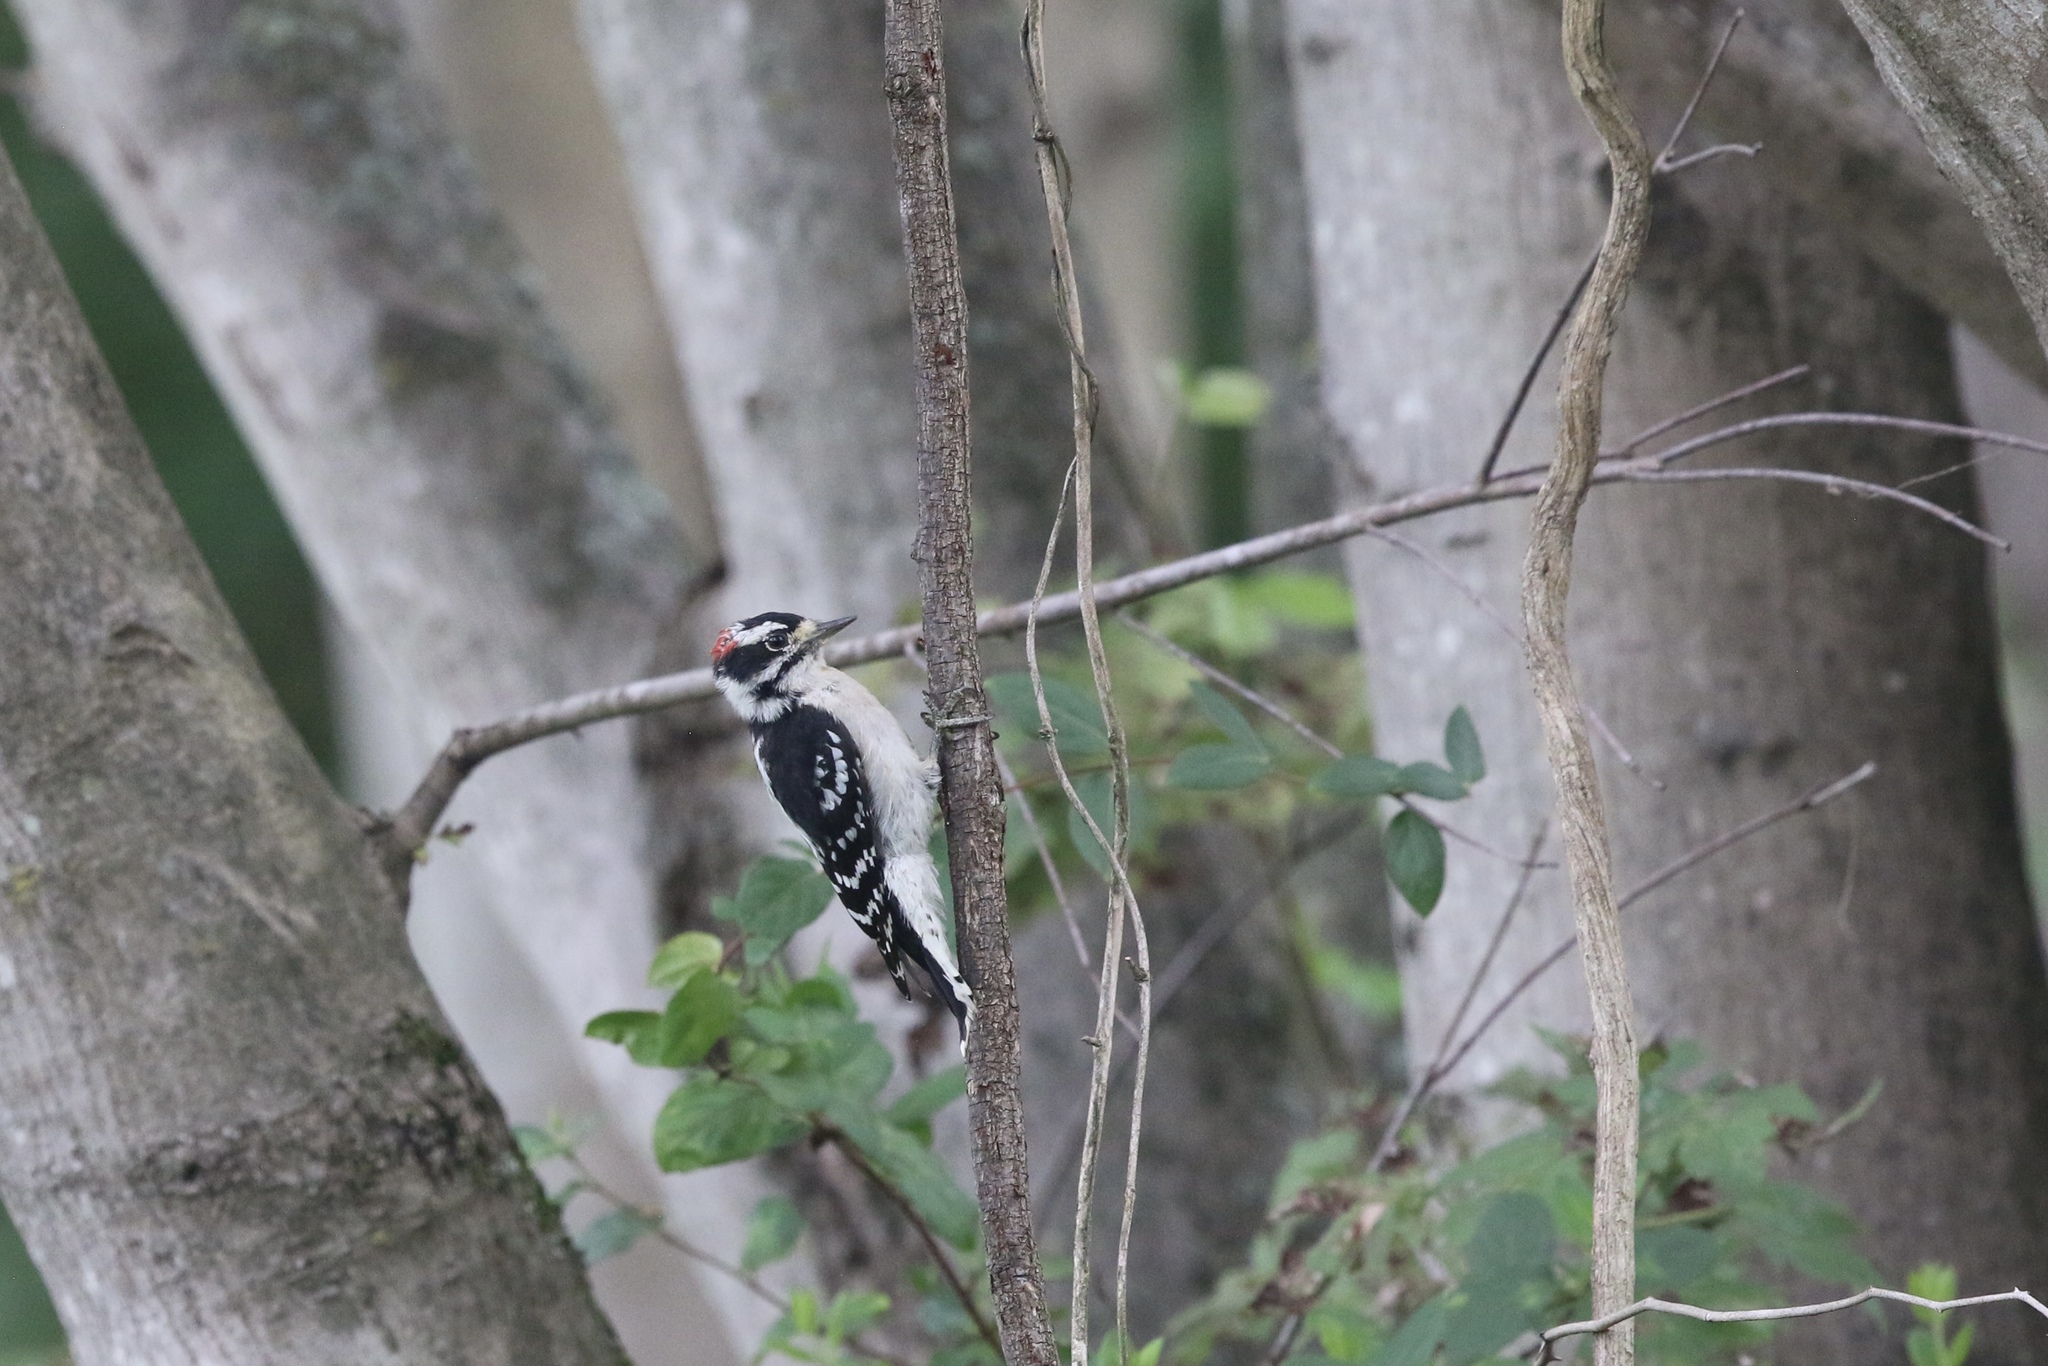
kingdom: Animalia
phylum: Chordata
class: Aves
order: Piciformes
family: Picidae
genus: Dryobates
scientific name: Dryobates pubescens
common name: Downy woodpecker
